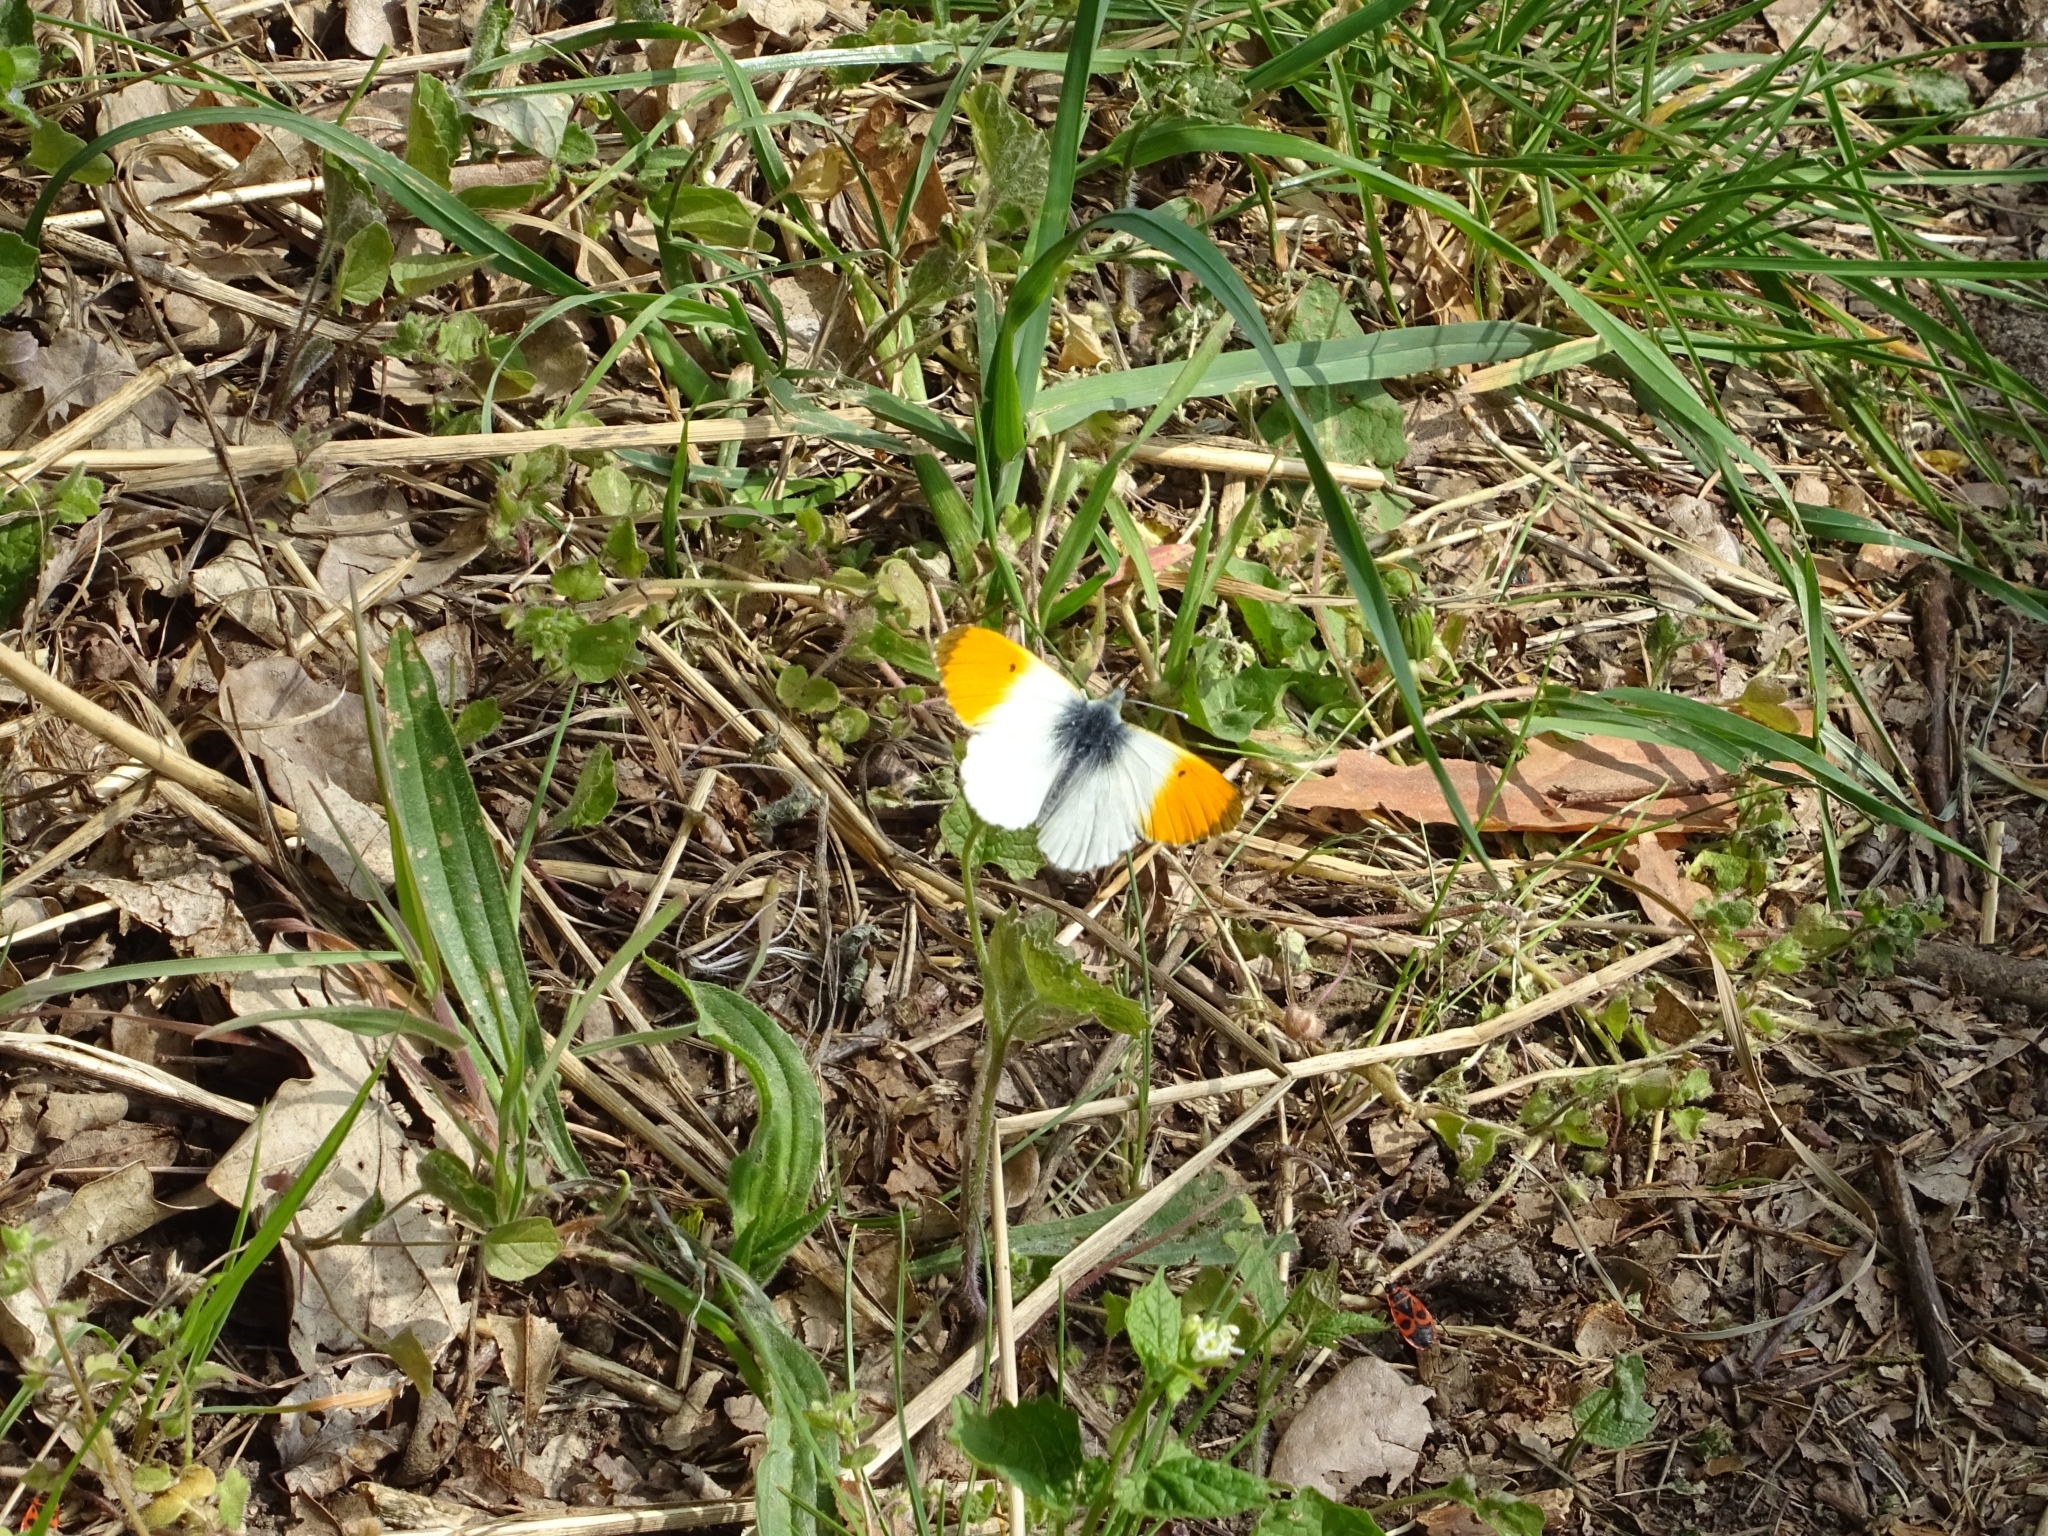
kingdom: Animalia
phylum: Arthropoda
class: Insecta
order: Lepidoptera
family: Pieridae
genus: Anthocharis
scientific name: Anthocharis cardamines
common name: Orange-tip
